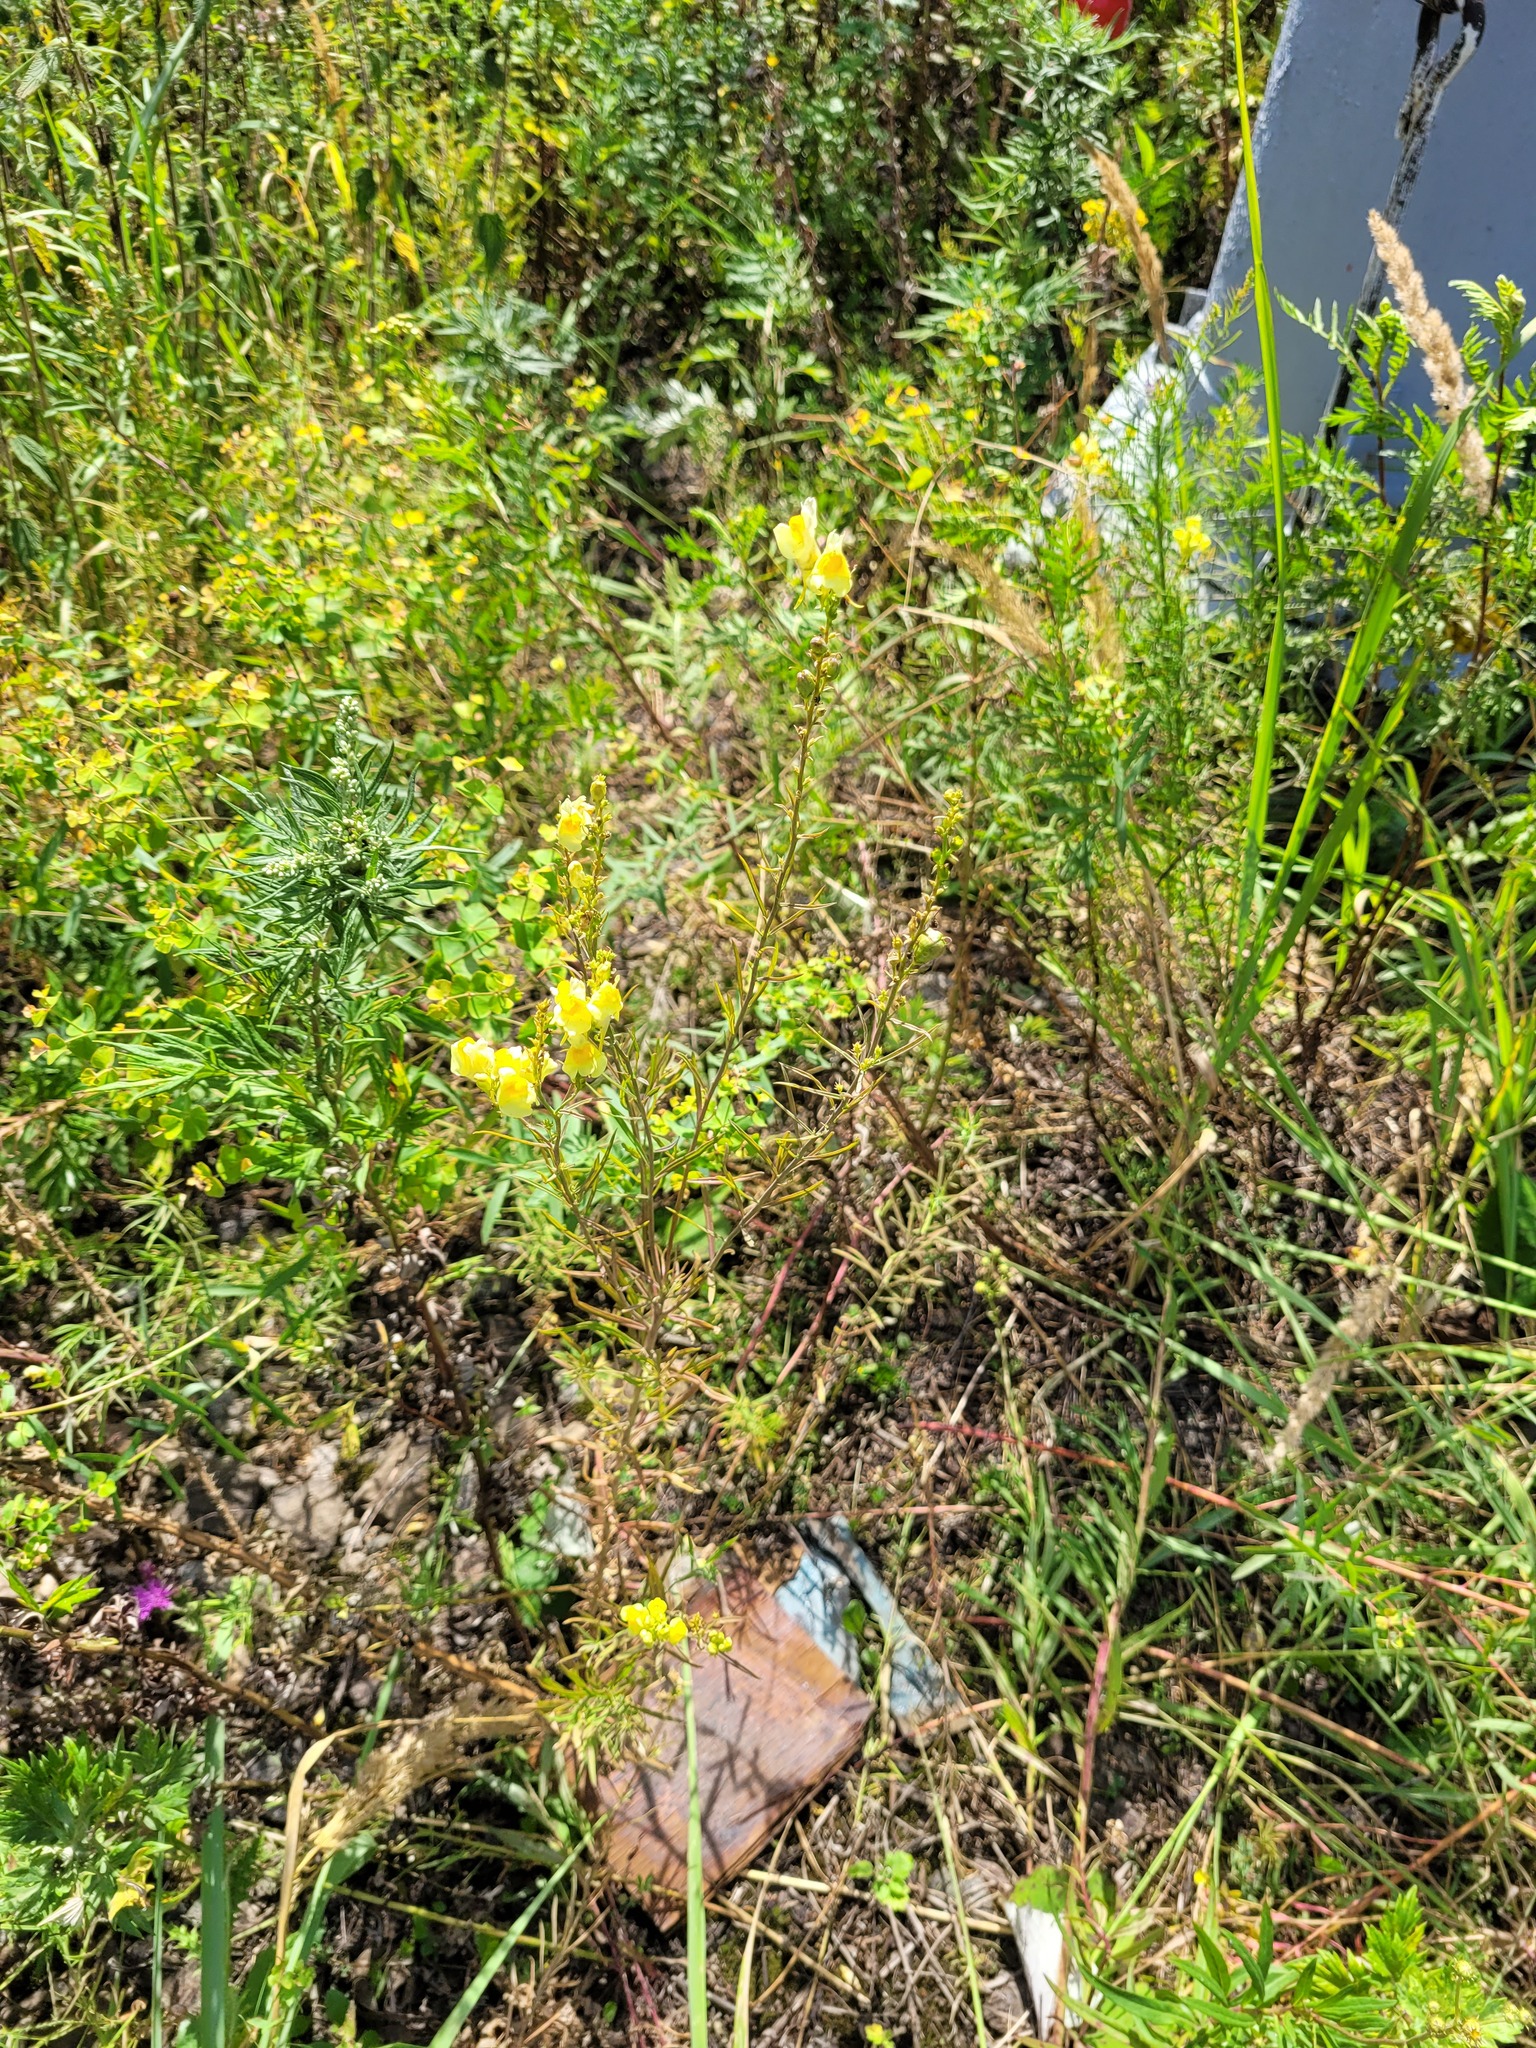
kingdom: Plantae
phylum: Tracheophyta
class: Magnoliopsida
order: Lamiales
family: Plantaginaceae
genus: Linaria
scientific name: Linaria vulgaris
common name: Butter and eggs
